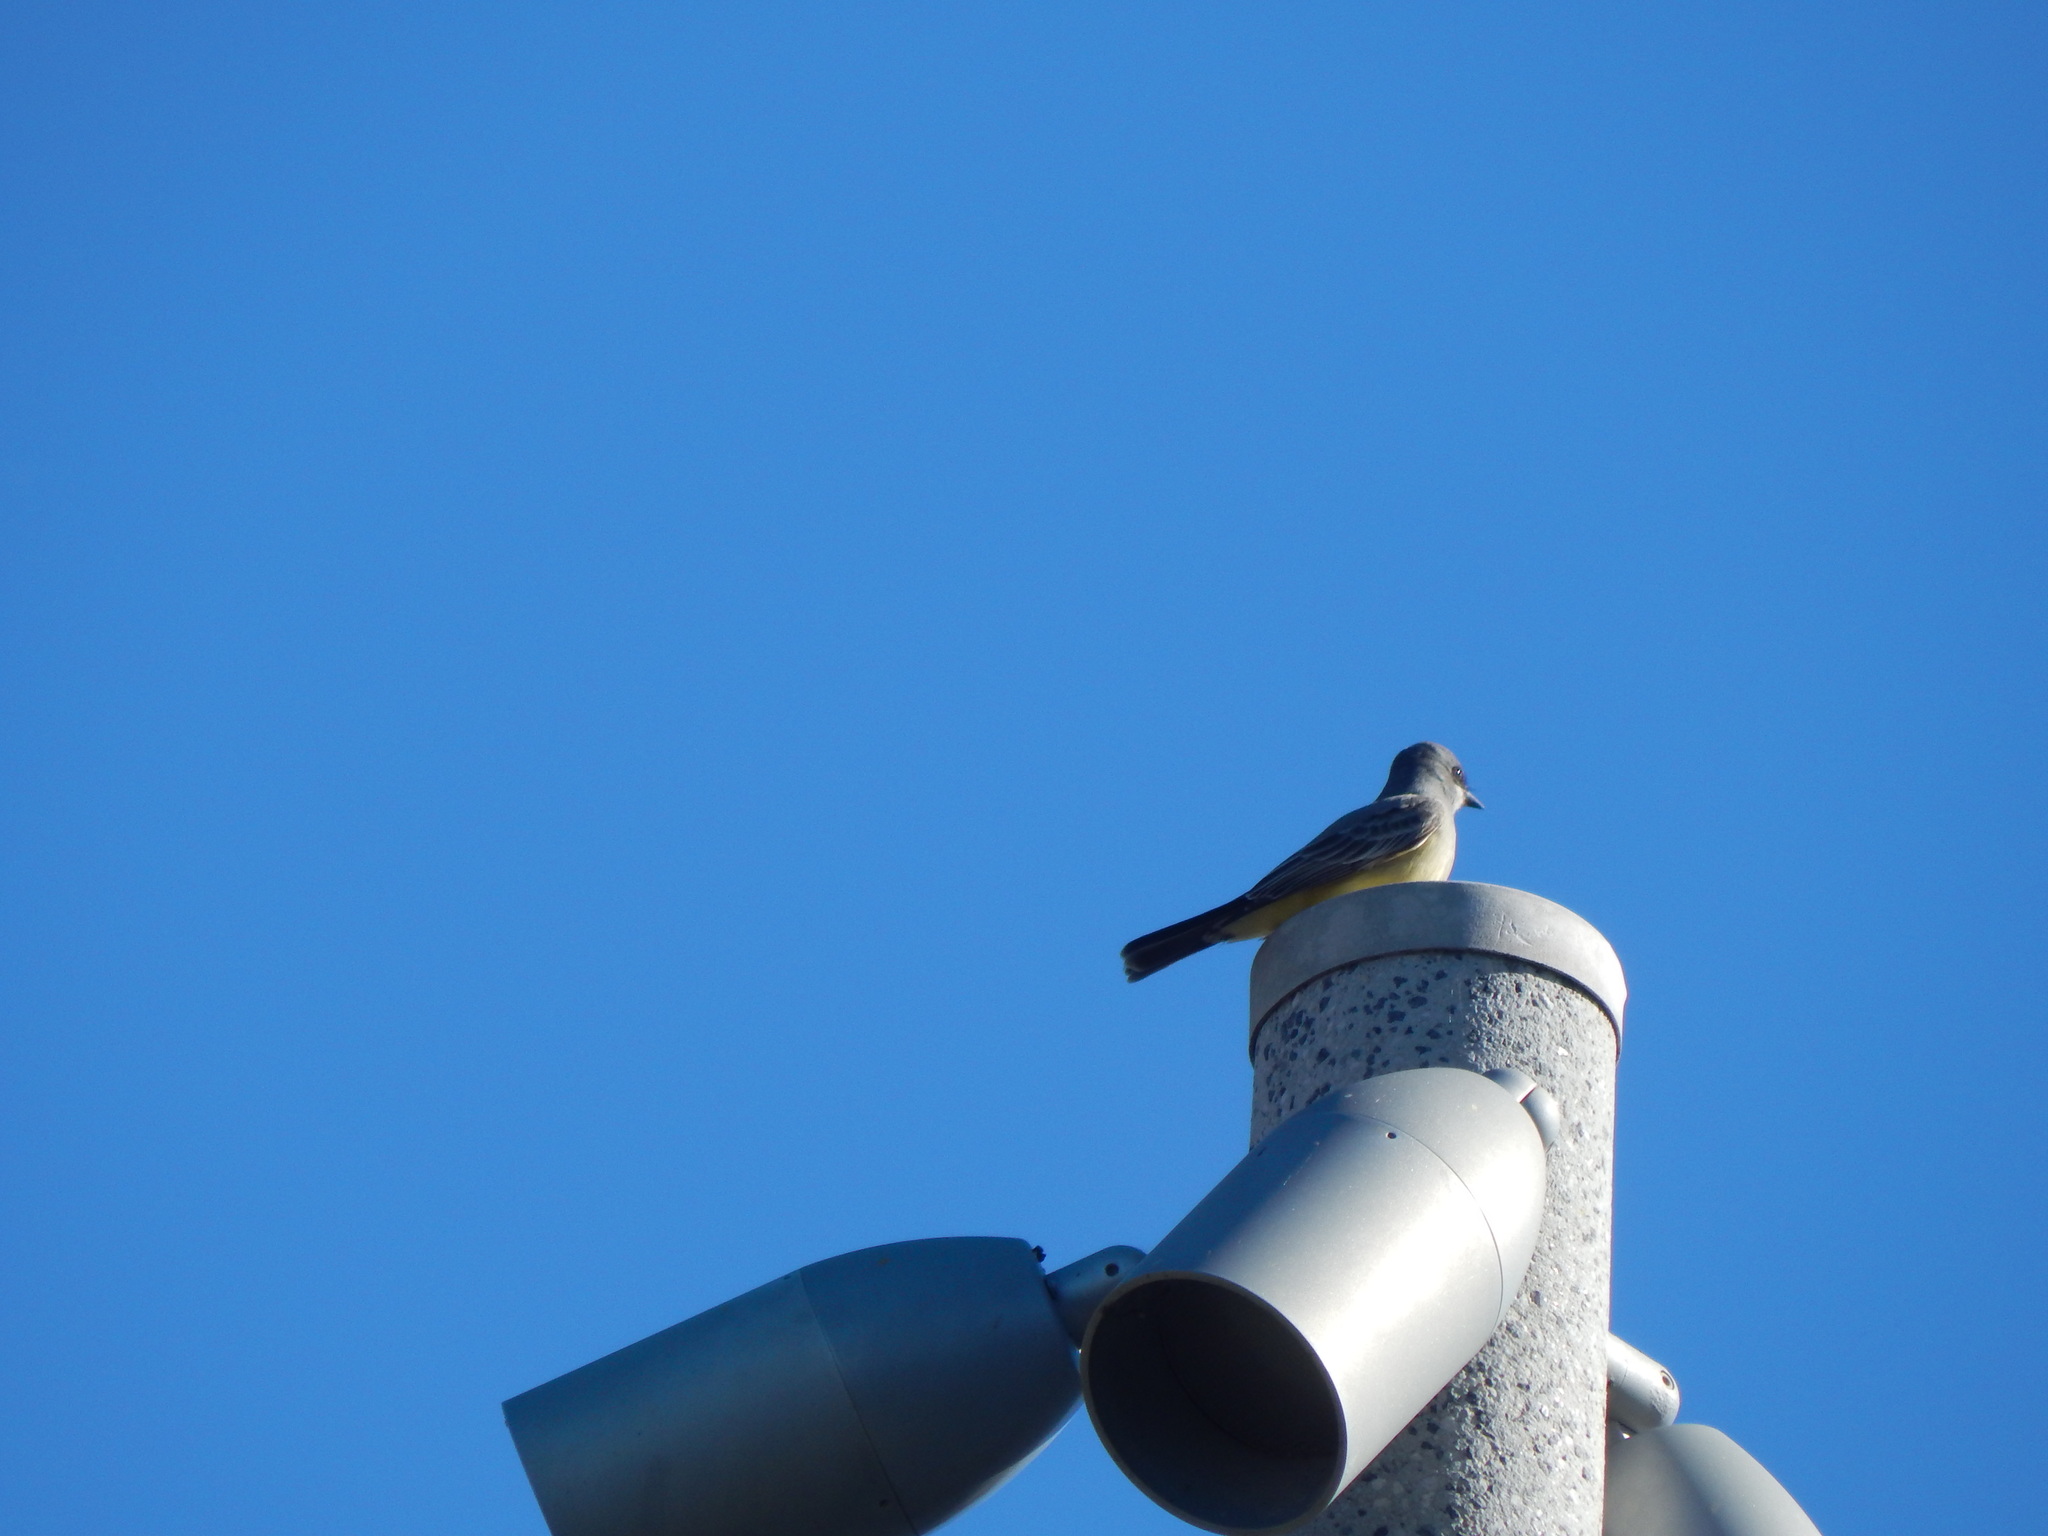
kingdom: Animalia
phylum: Chordata
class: Aves
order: Passeriformes
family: Tyrannidae
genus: Tyrannus
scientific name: Tyrannus vociferans
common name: Cassin's kingbird
